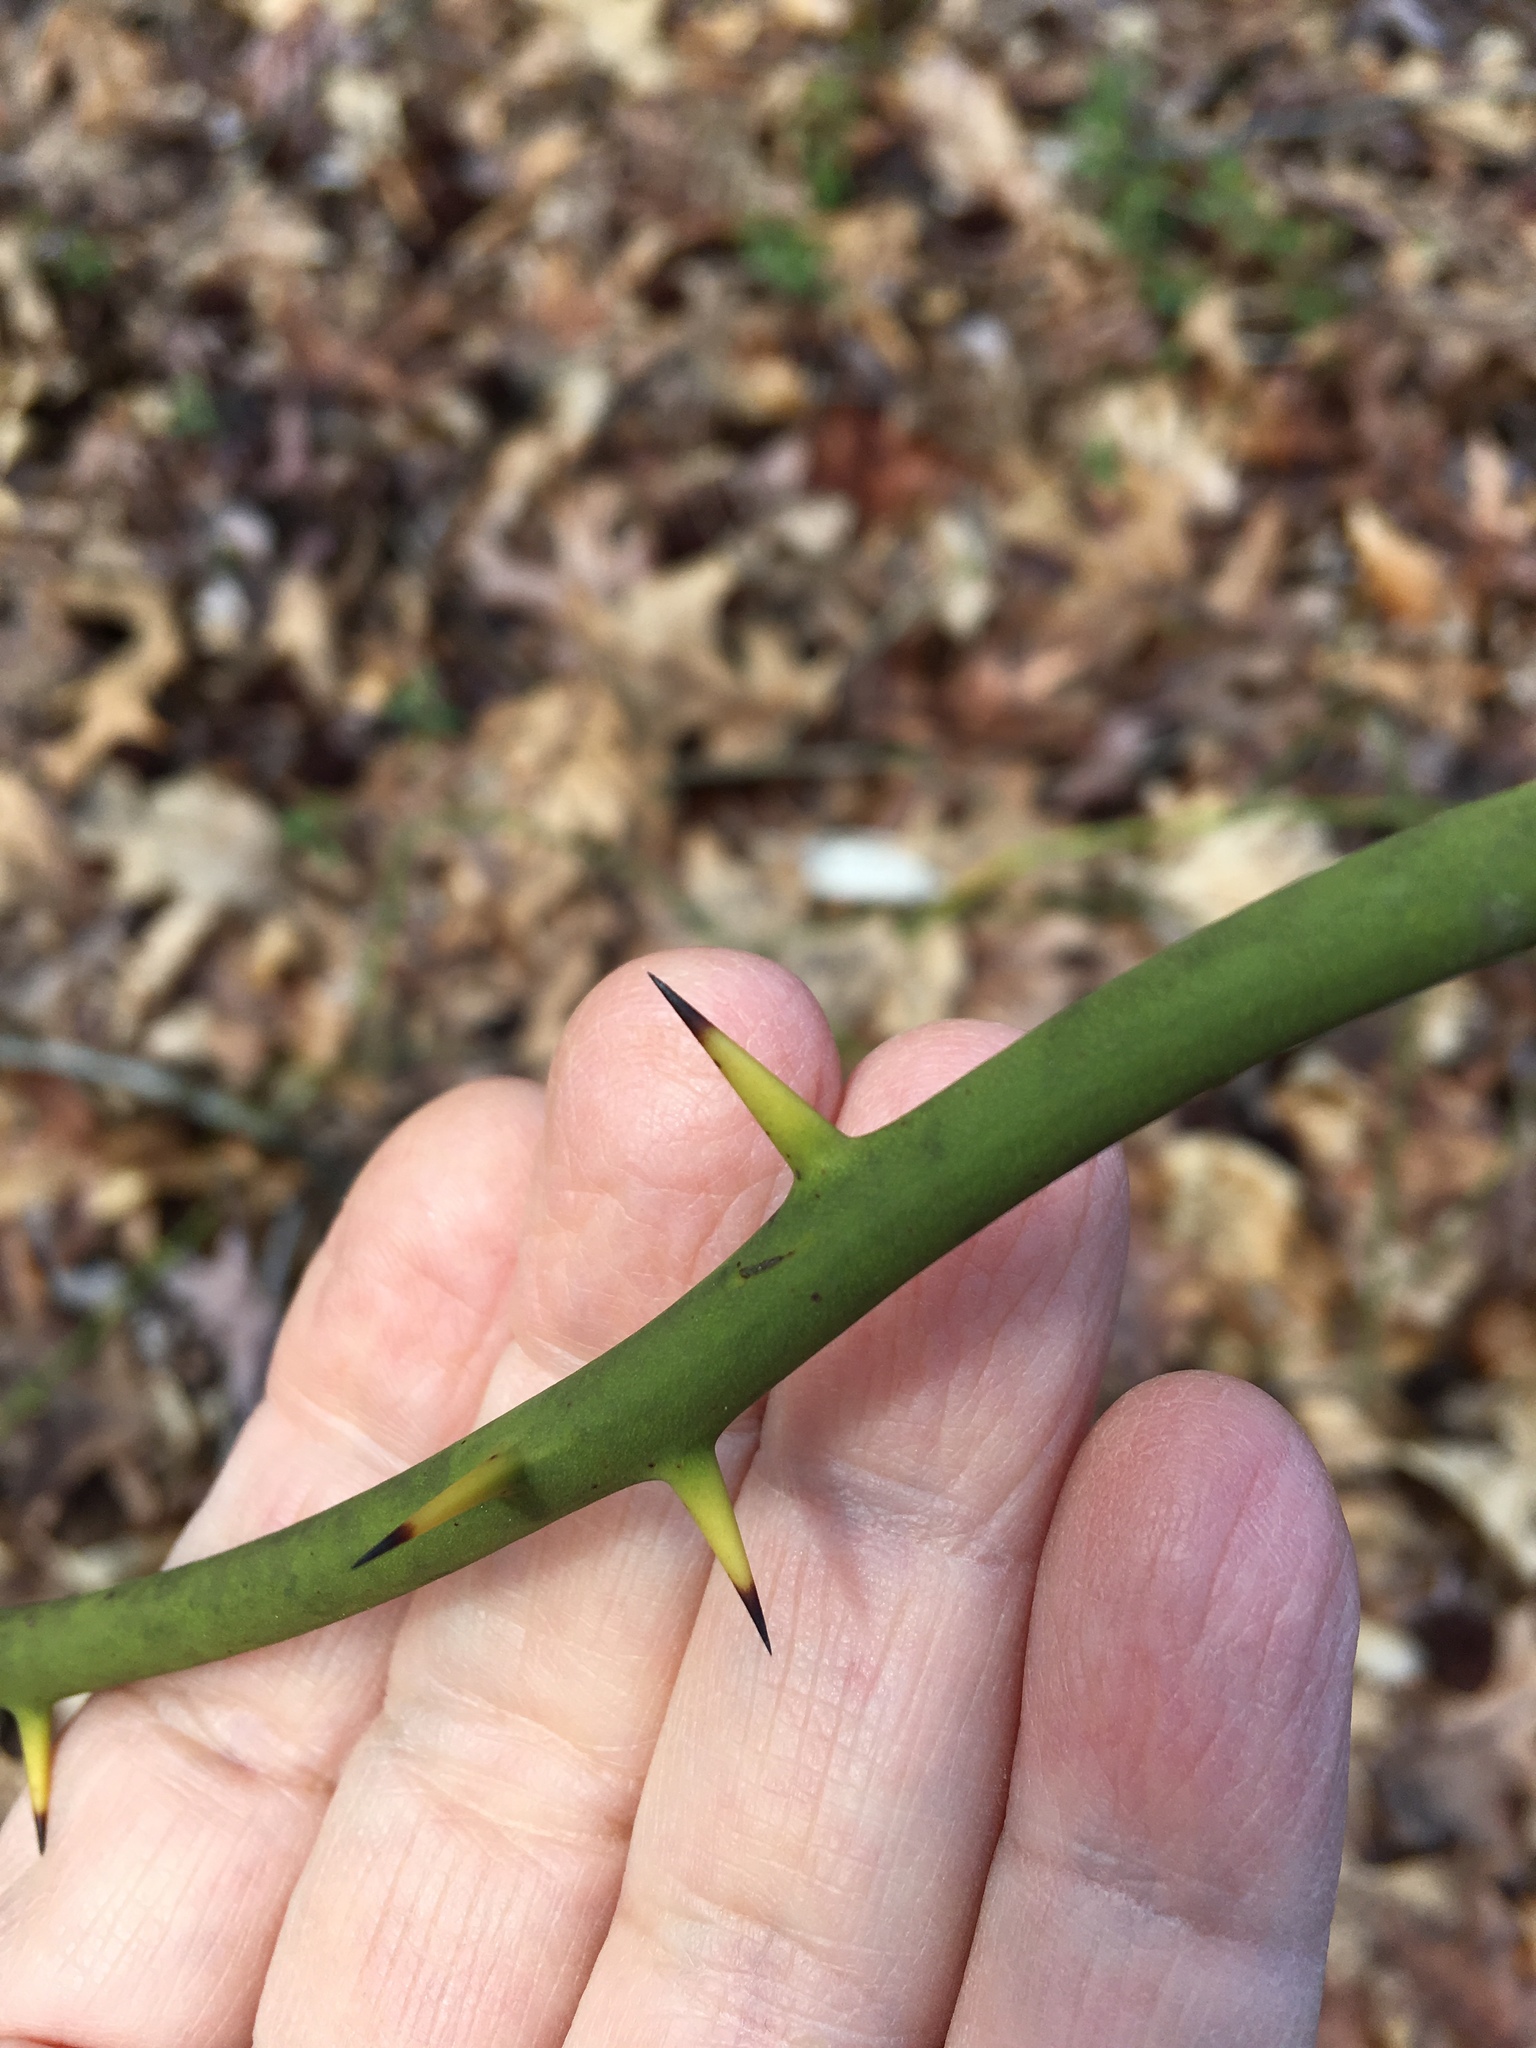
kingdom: Plantae
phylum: Tracheophyta
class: Liliopsida
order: Liliales
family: Smilacaceae
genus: Smilax
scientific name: Smilax rotundifolia
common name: Bullbriar
